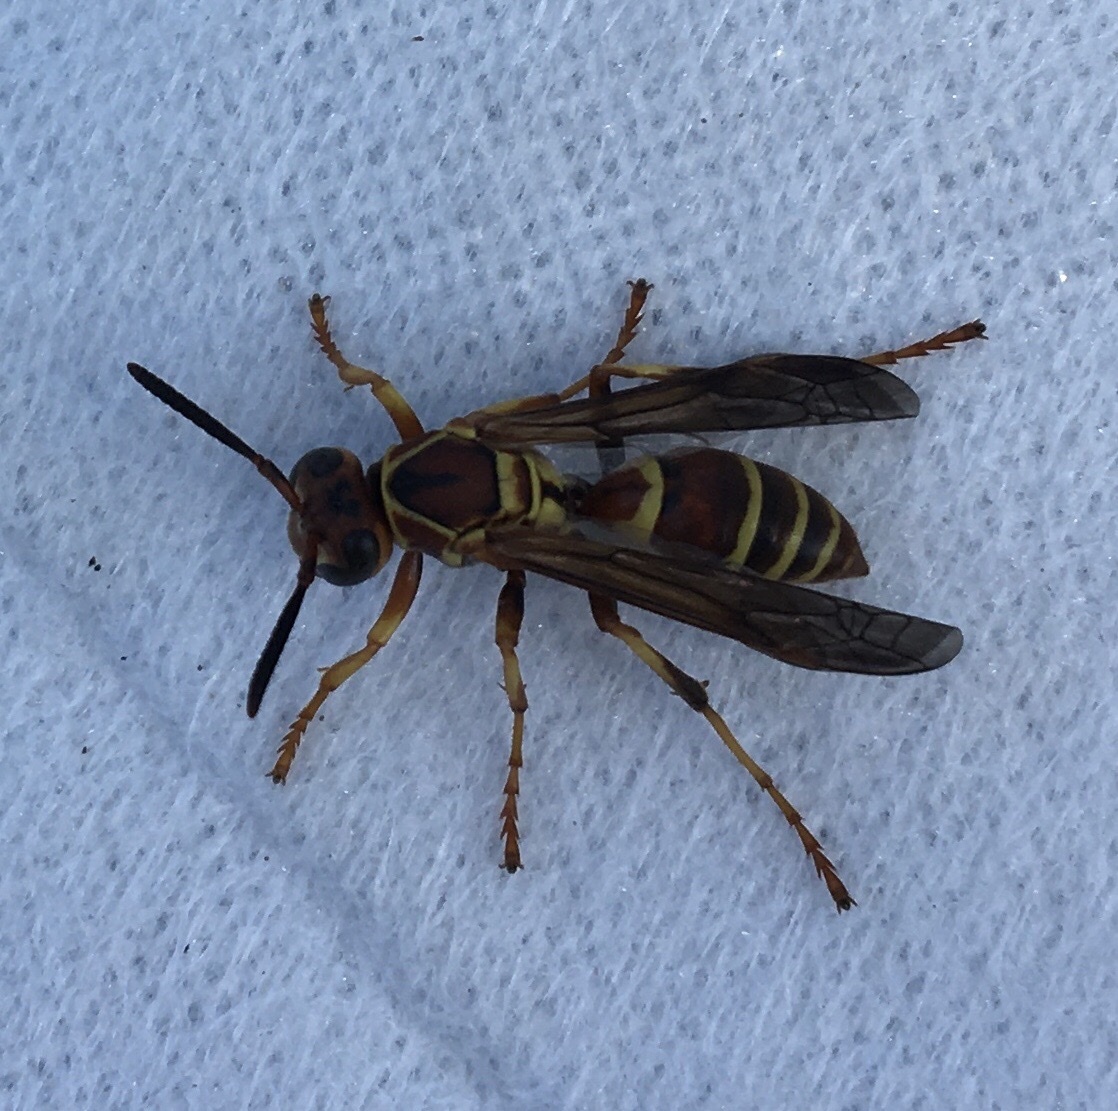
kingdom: Animalia
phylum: Arthropoda
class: Insecta
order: Hymenoptera
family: Eumenidae
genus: Polistes
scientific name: Polistes dorsalis
